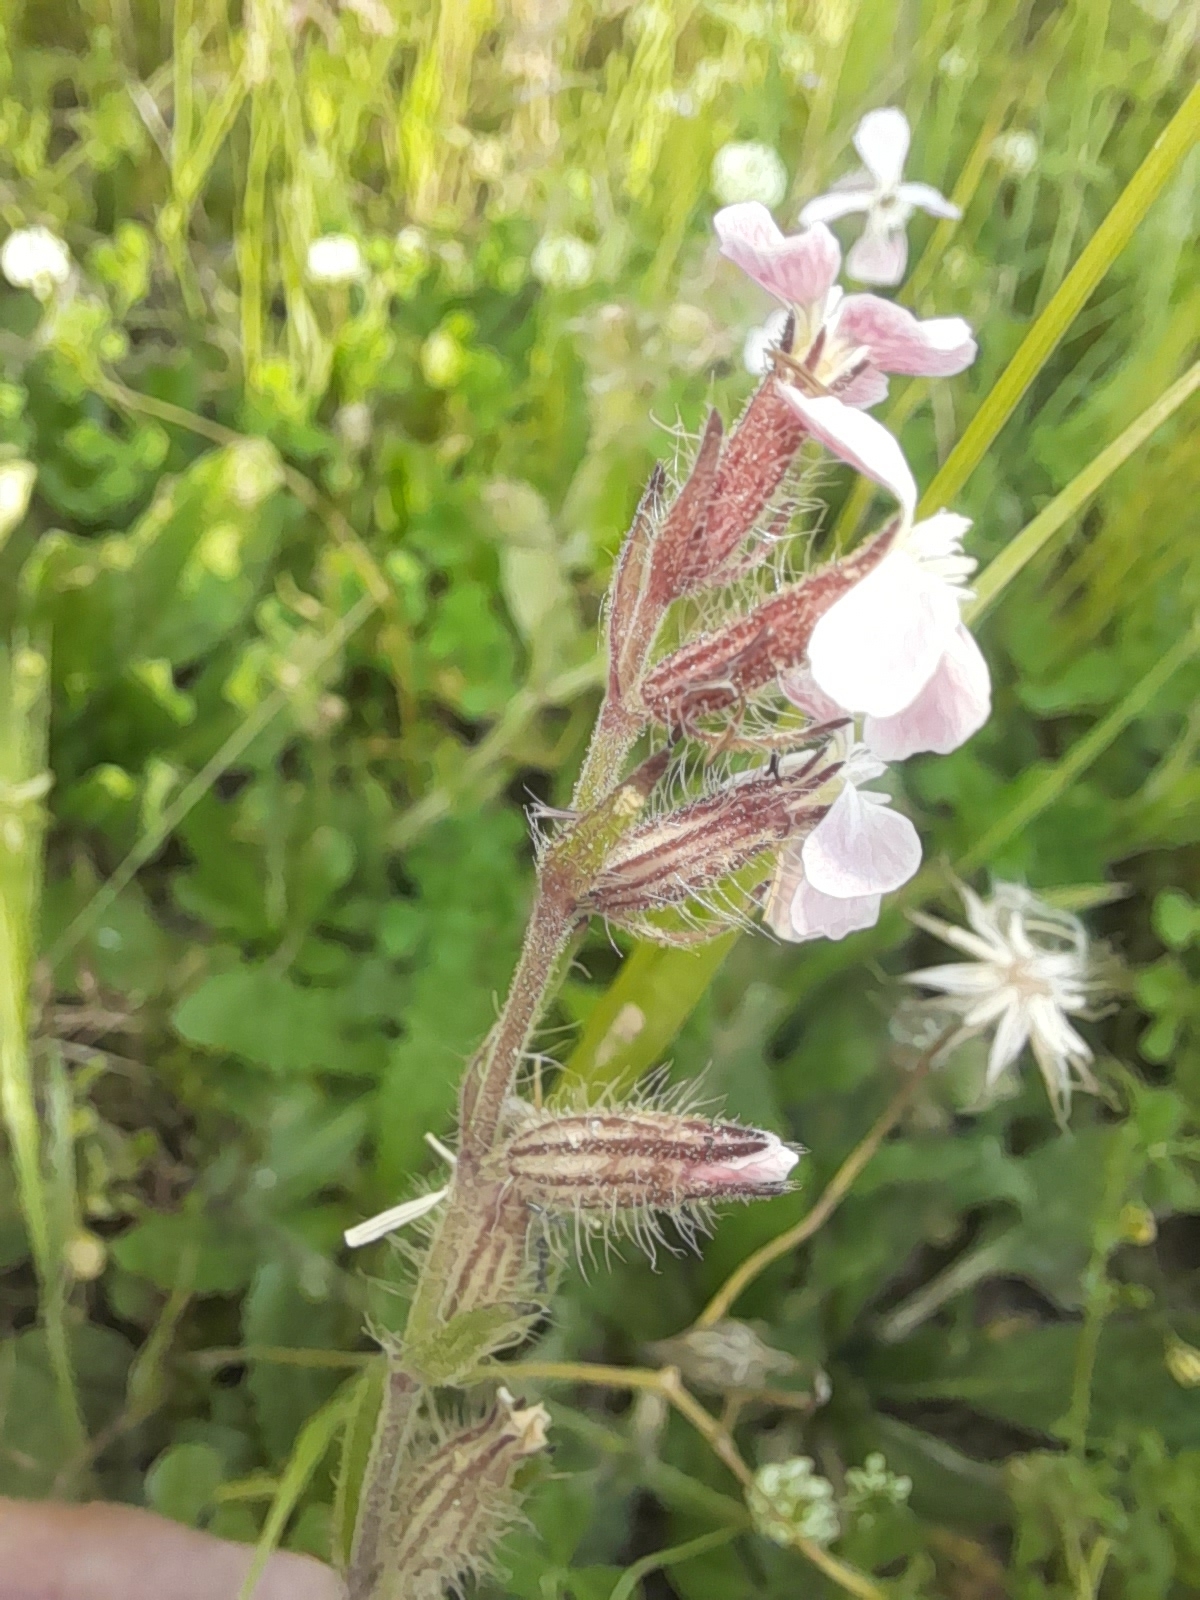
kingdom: Plantae
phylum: Tracheophyta
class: Magnoliopsida
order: Caryophyllales
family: Caryophyllaceae
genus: Silene
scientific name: Silene gallica
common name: Small-flowered catchfly
